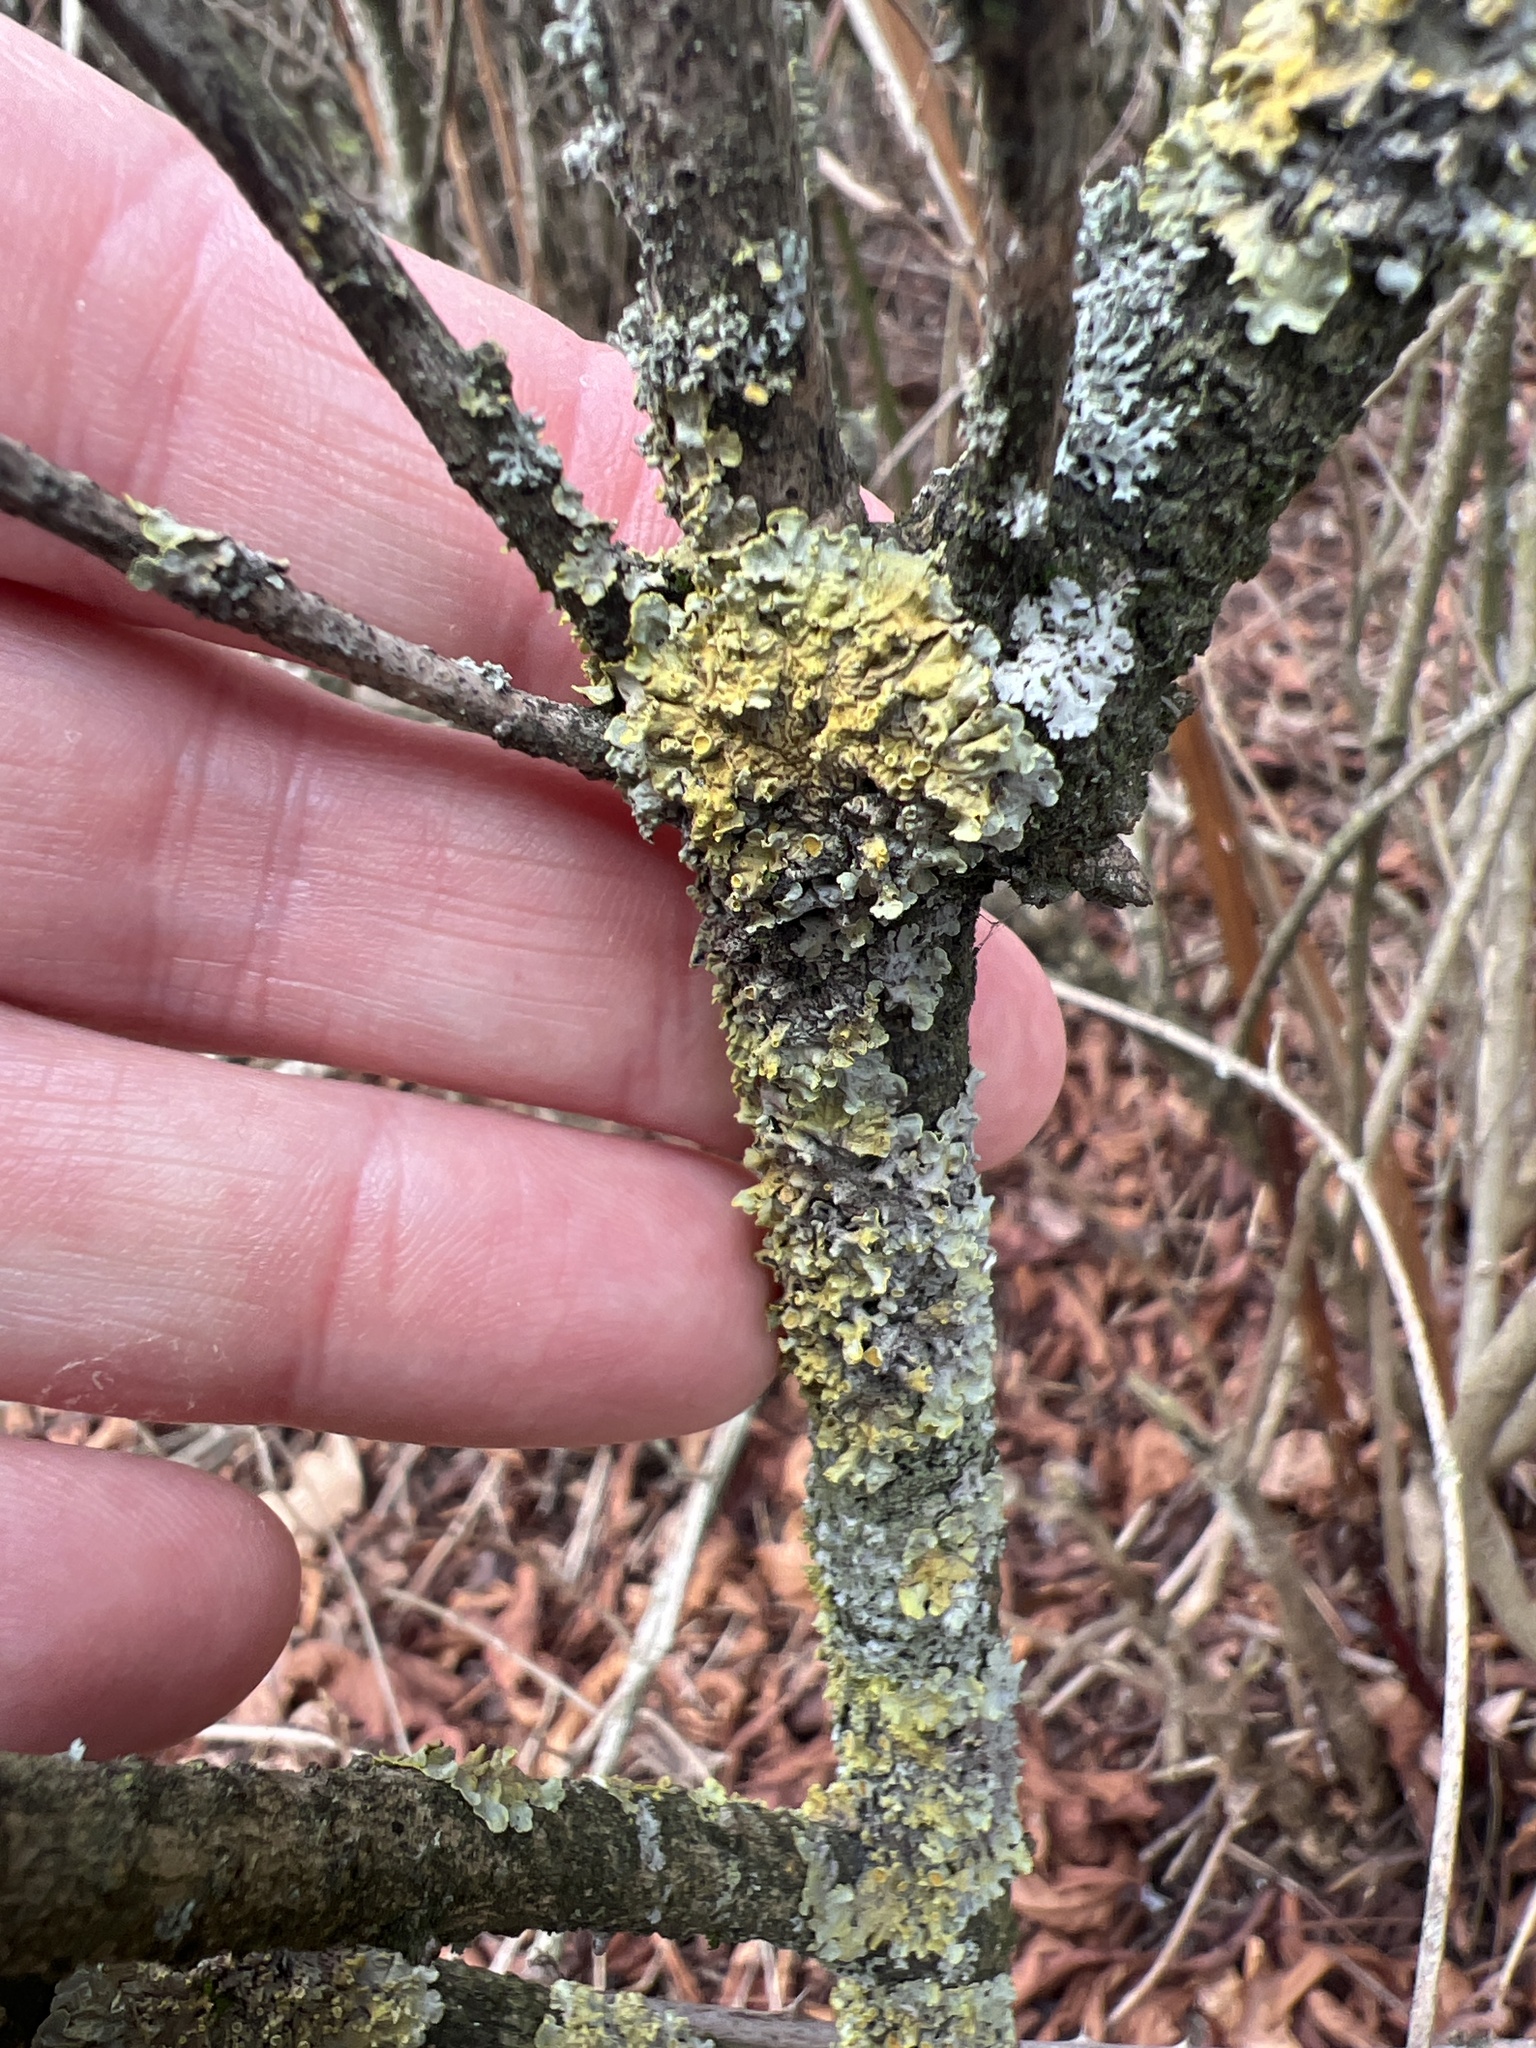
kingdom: Fungi
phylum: Ascomycota
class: Lecanoromycetes
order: Teloschistales
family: Teloschistaceae
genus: Xanthoria
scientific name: Xanthoria parietina
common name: Common orange lichen
